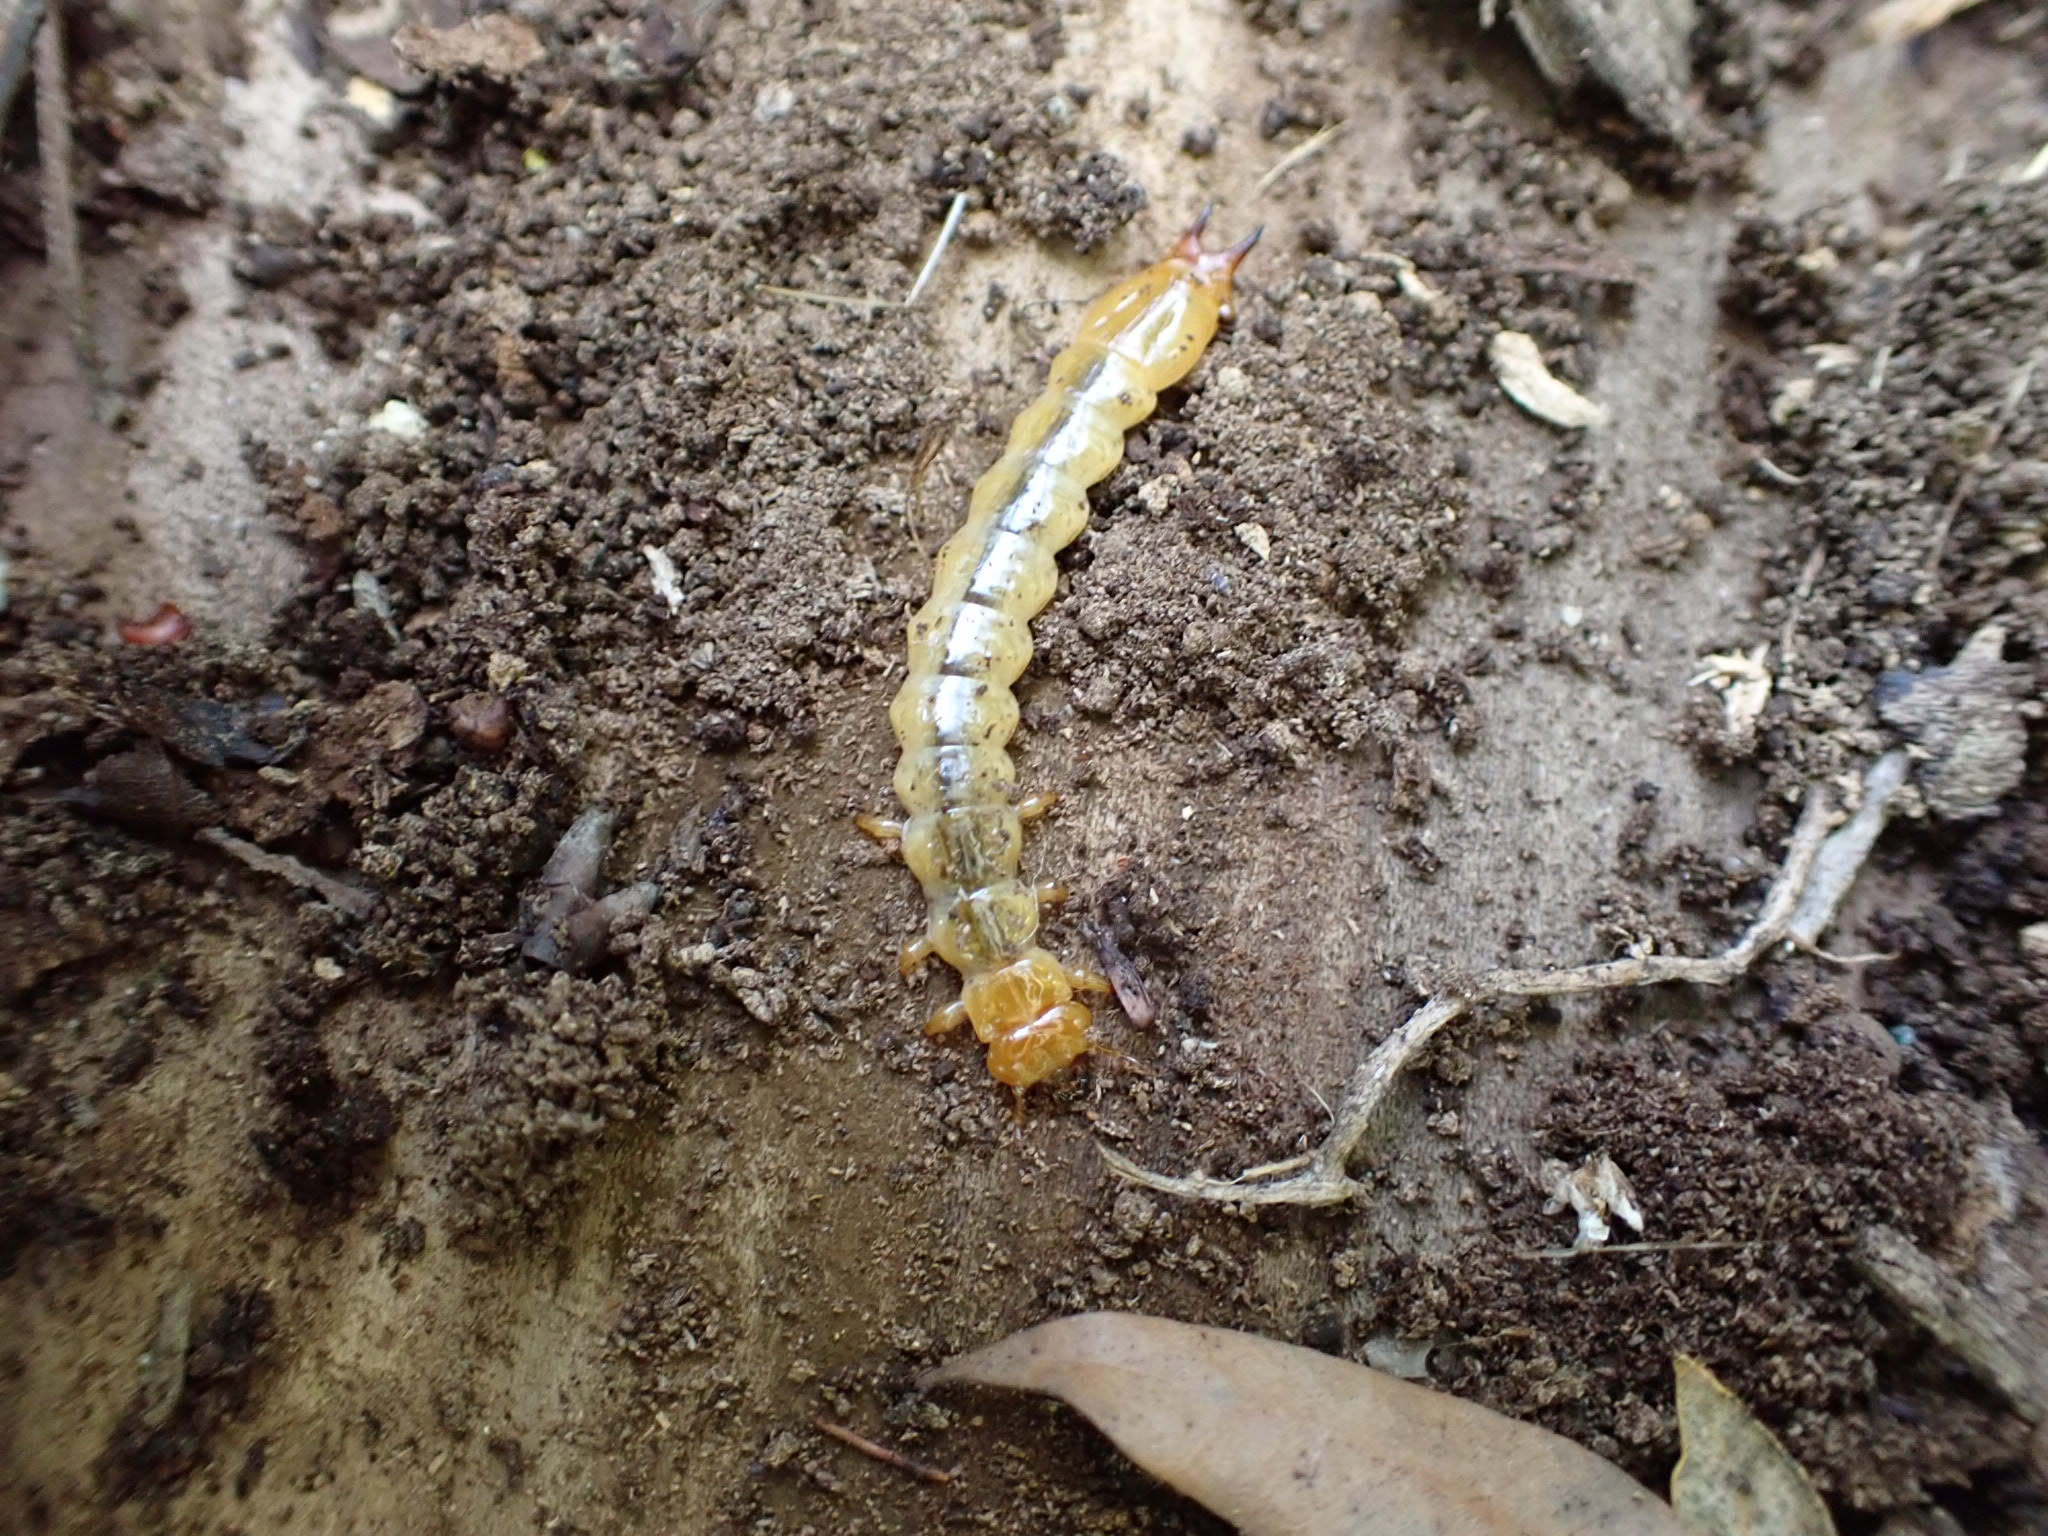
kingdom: Animalia
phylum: Arthropoda
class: Insecta
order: Coleoptera
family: Pyrochroidae
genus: Pyrochroa
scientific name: Pyrochroa coccinea
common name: Black-headed cardinal beetle
